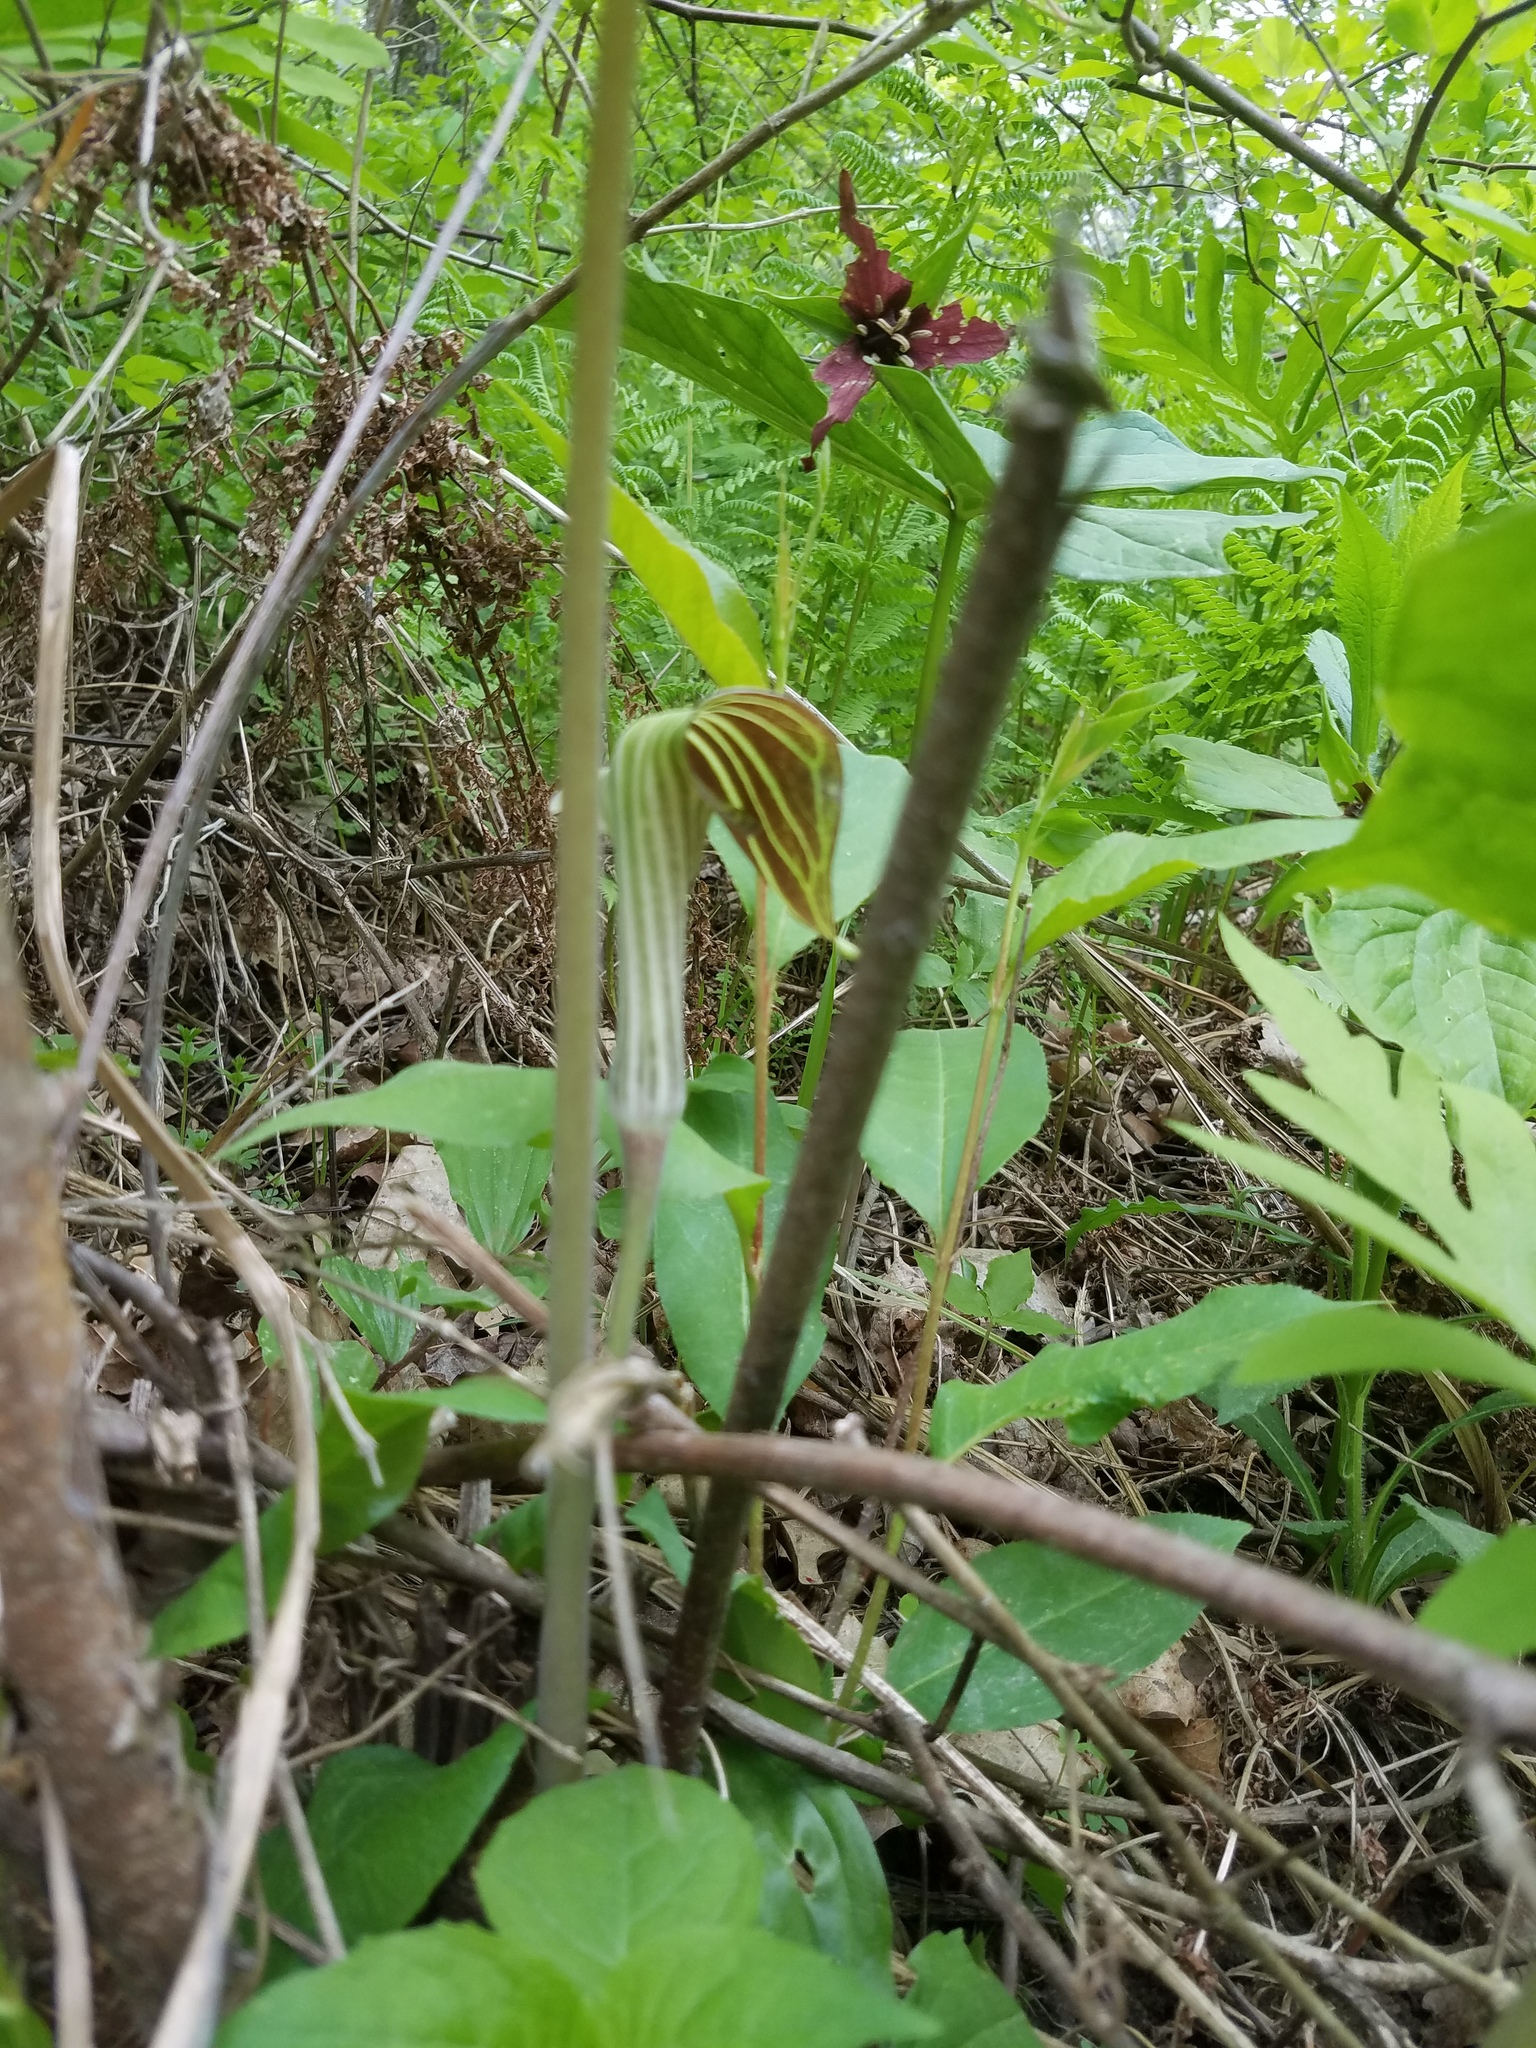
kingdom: Plantae
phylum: Tracheophyta
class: Liliopsida
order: Alismatales
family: Araceae
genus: Arisaema
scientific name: Arisaema triphyllum
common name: Jack-in-the-pulpit
